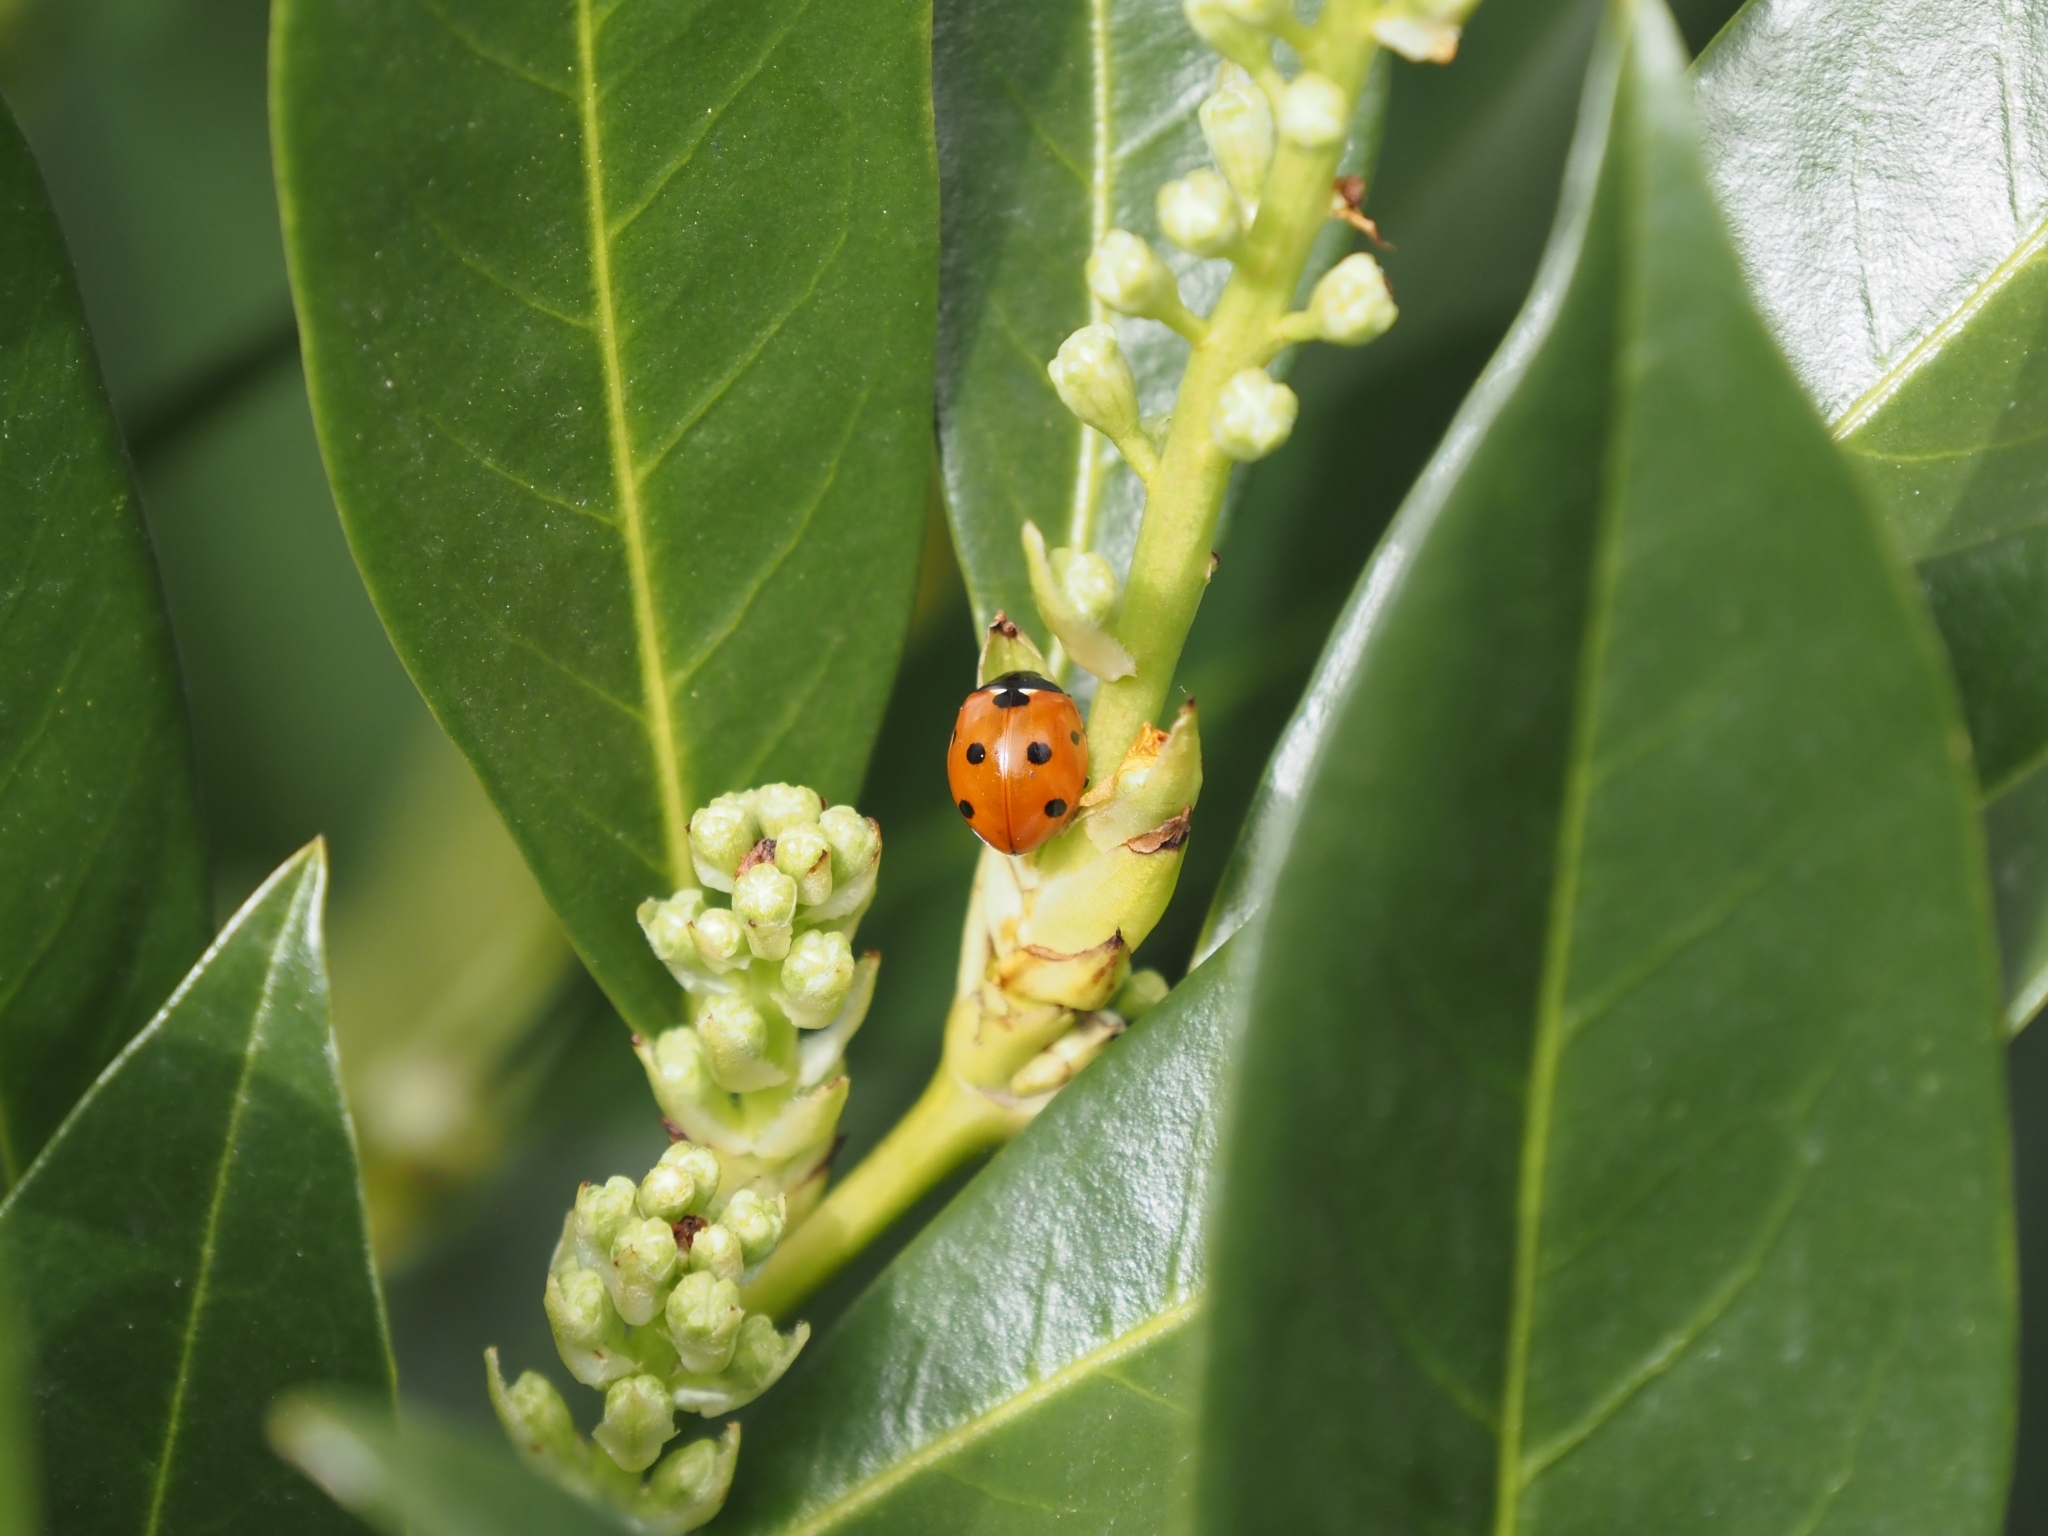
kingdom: Animalia
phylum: Arthropoda
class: Insecta
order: Coleoptera
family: Coccinellidae
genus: Coccinella
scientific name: Coccinella septempunctata
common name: Sevenspotted lady beetle
